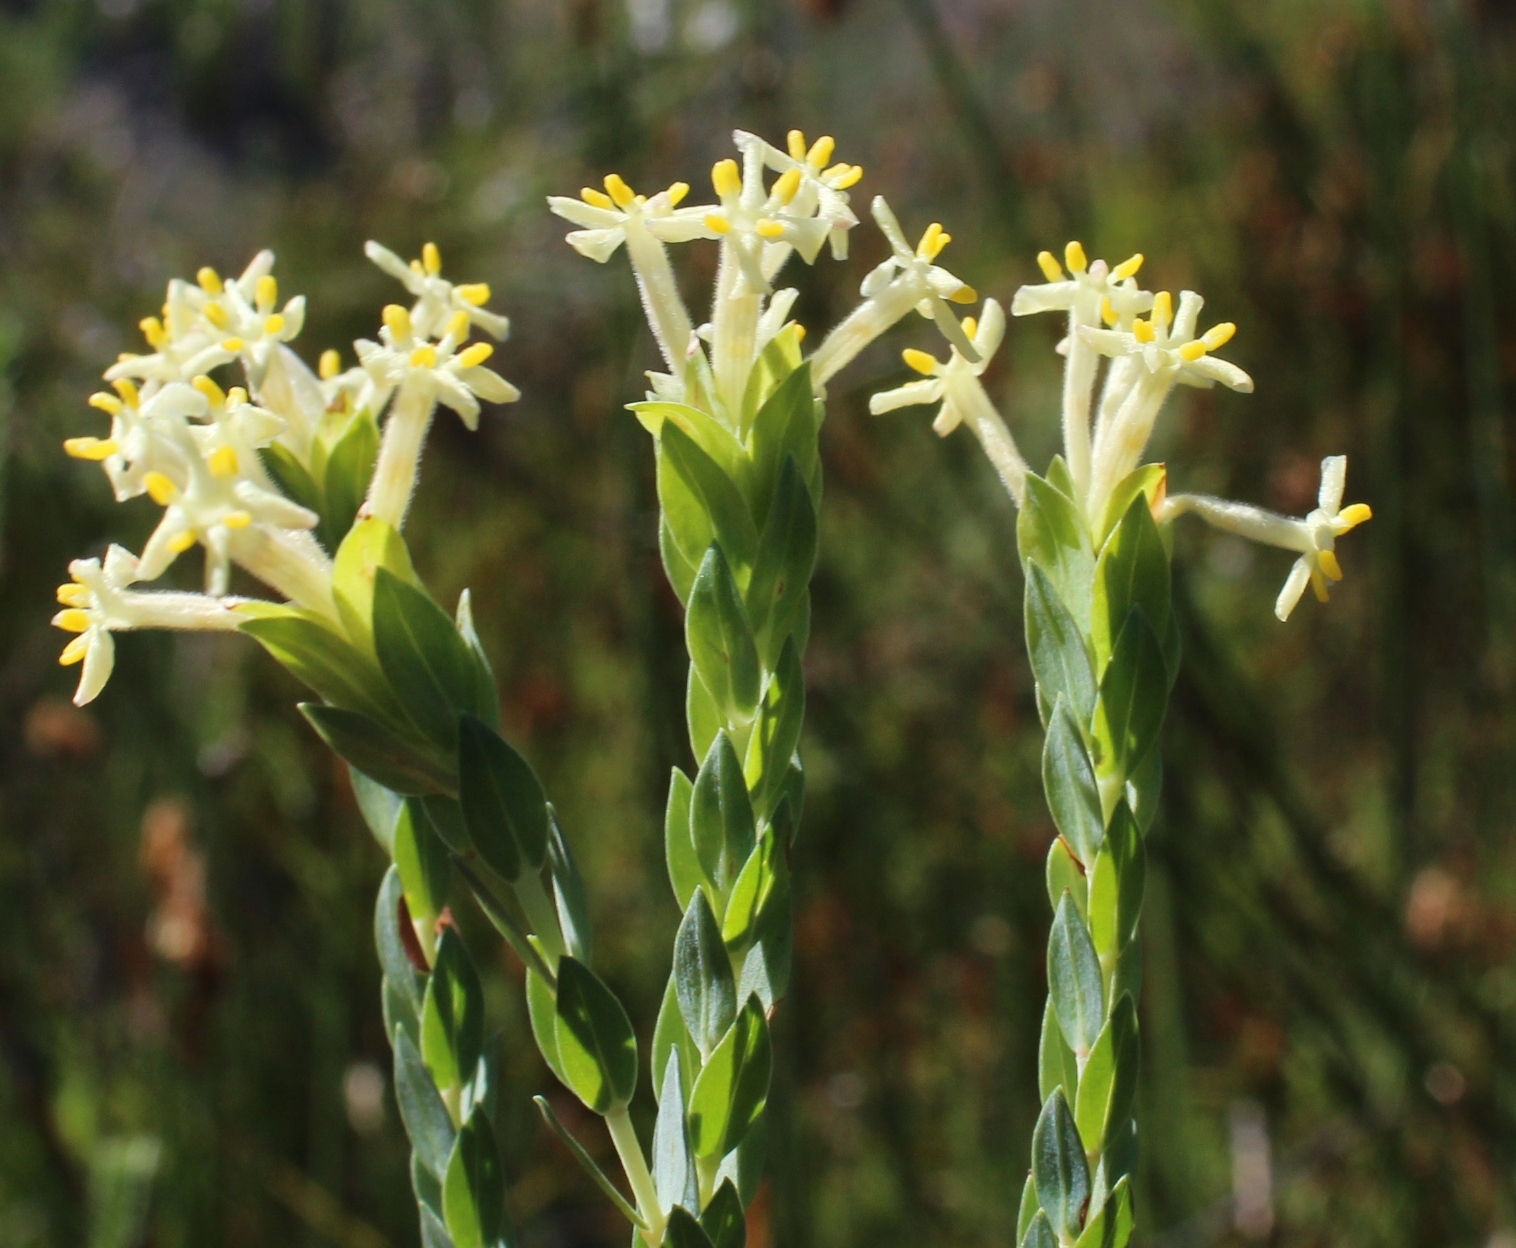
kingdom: Plantae
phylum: Tracheophyta
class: Magnoliopsida
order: Malvales
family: Thymelaeaceae
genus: Gnidia
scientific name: Gnidia oppositifolia
